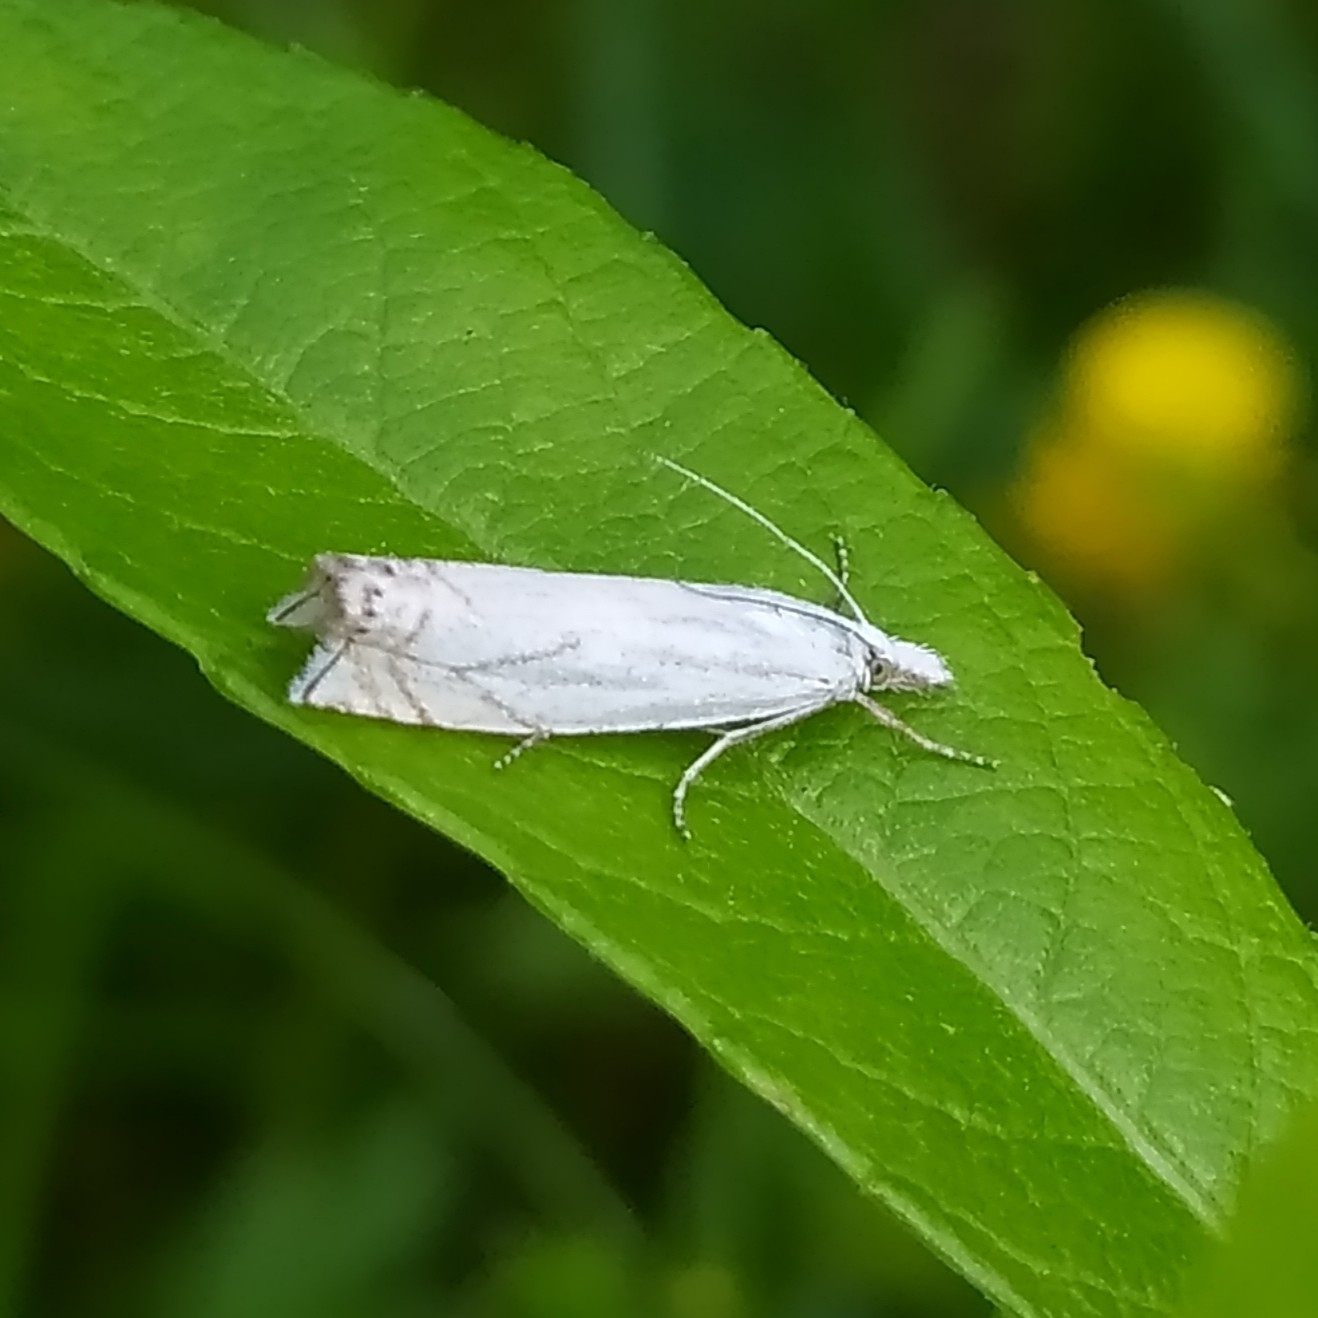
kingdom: Animalia
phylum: Arthropoda
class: Insecta
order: Lepidoptera
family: Crambidae
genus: Crambus
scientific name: Crambus nemorella
